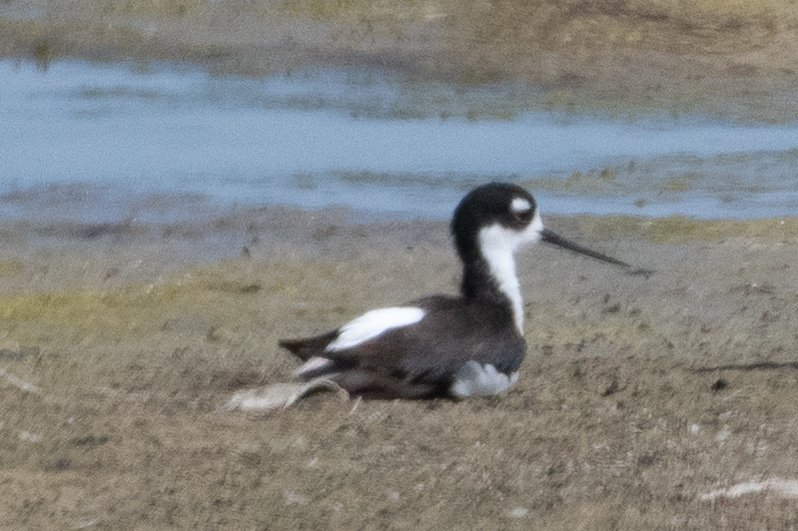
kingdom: Animalia
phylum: Chordata
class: Aves
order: Charadriiformes
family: Recurvirostridae
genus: Himantopus
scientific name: Himantopus mexicanus
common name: Black-necked stilt
